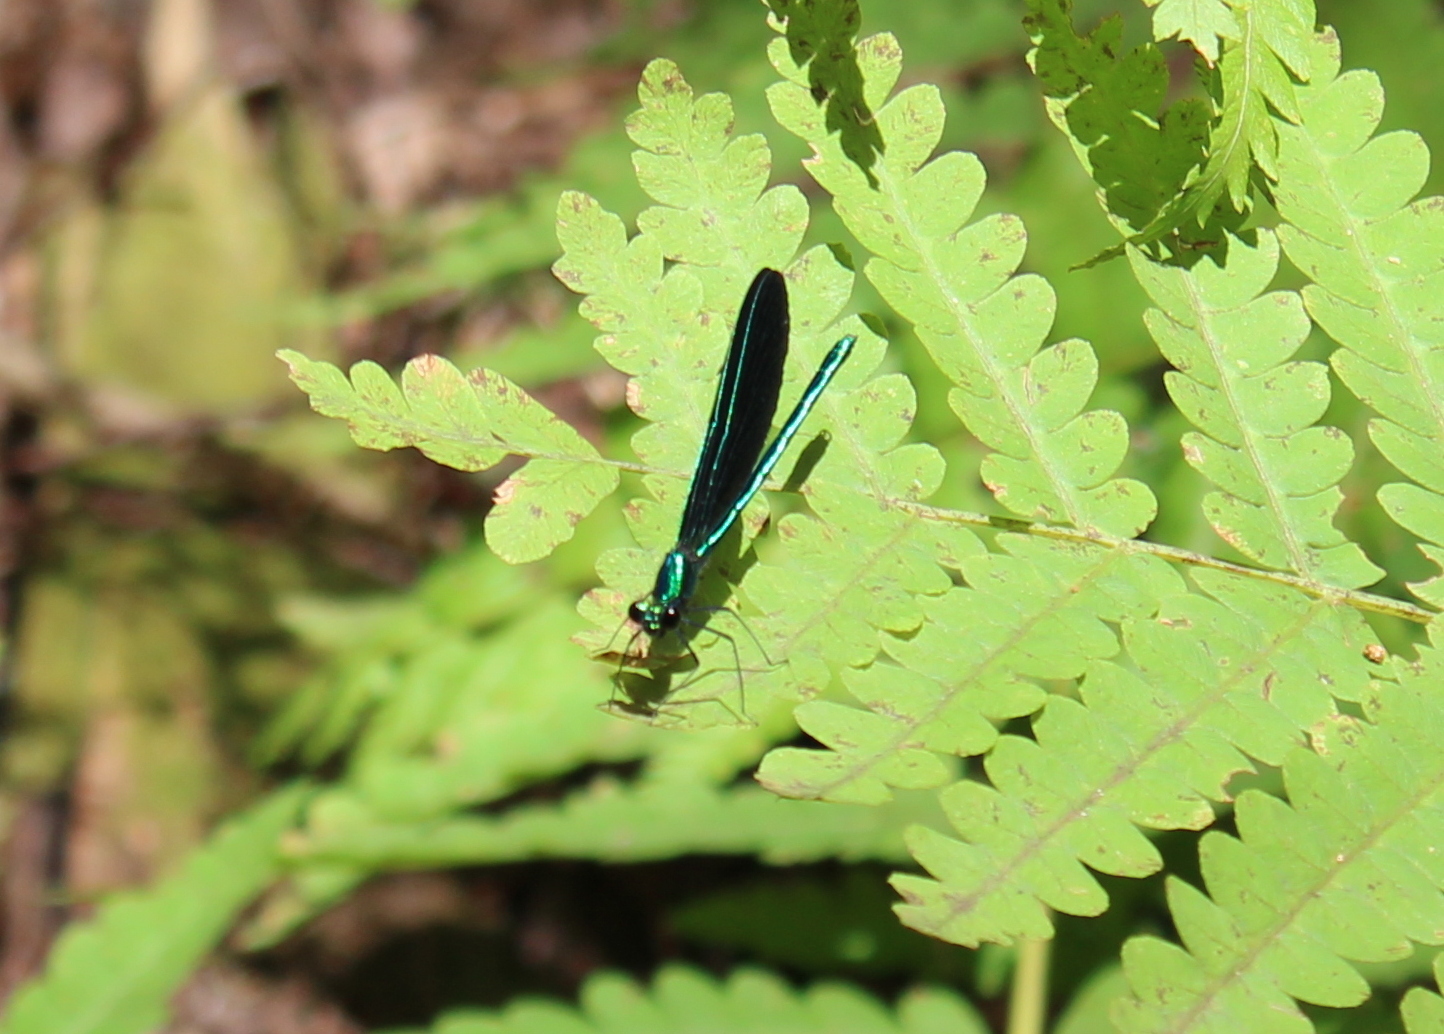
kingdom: Animalia
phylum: Arthropoda
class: Insecta
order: Odonata
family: Calopterygidae
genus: Calopteryx
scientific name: Calopteryx maculata
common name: Ebony jewelwing
